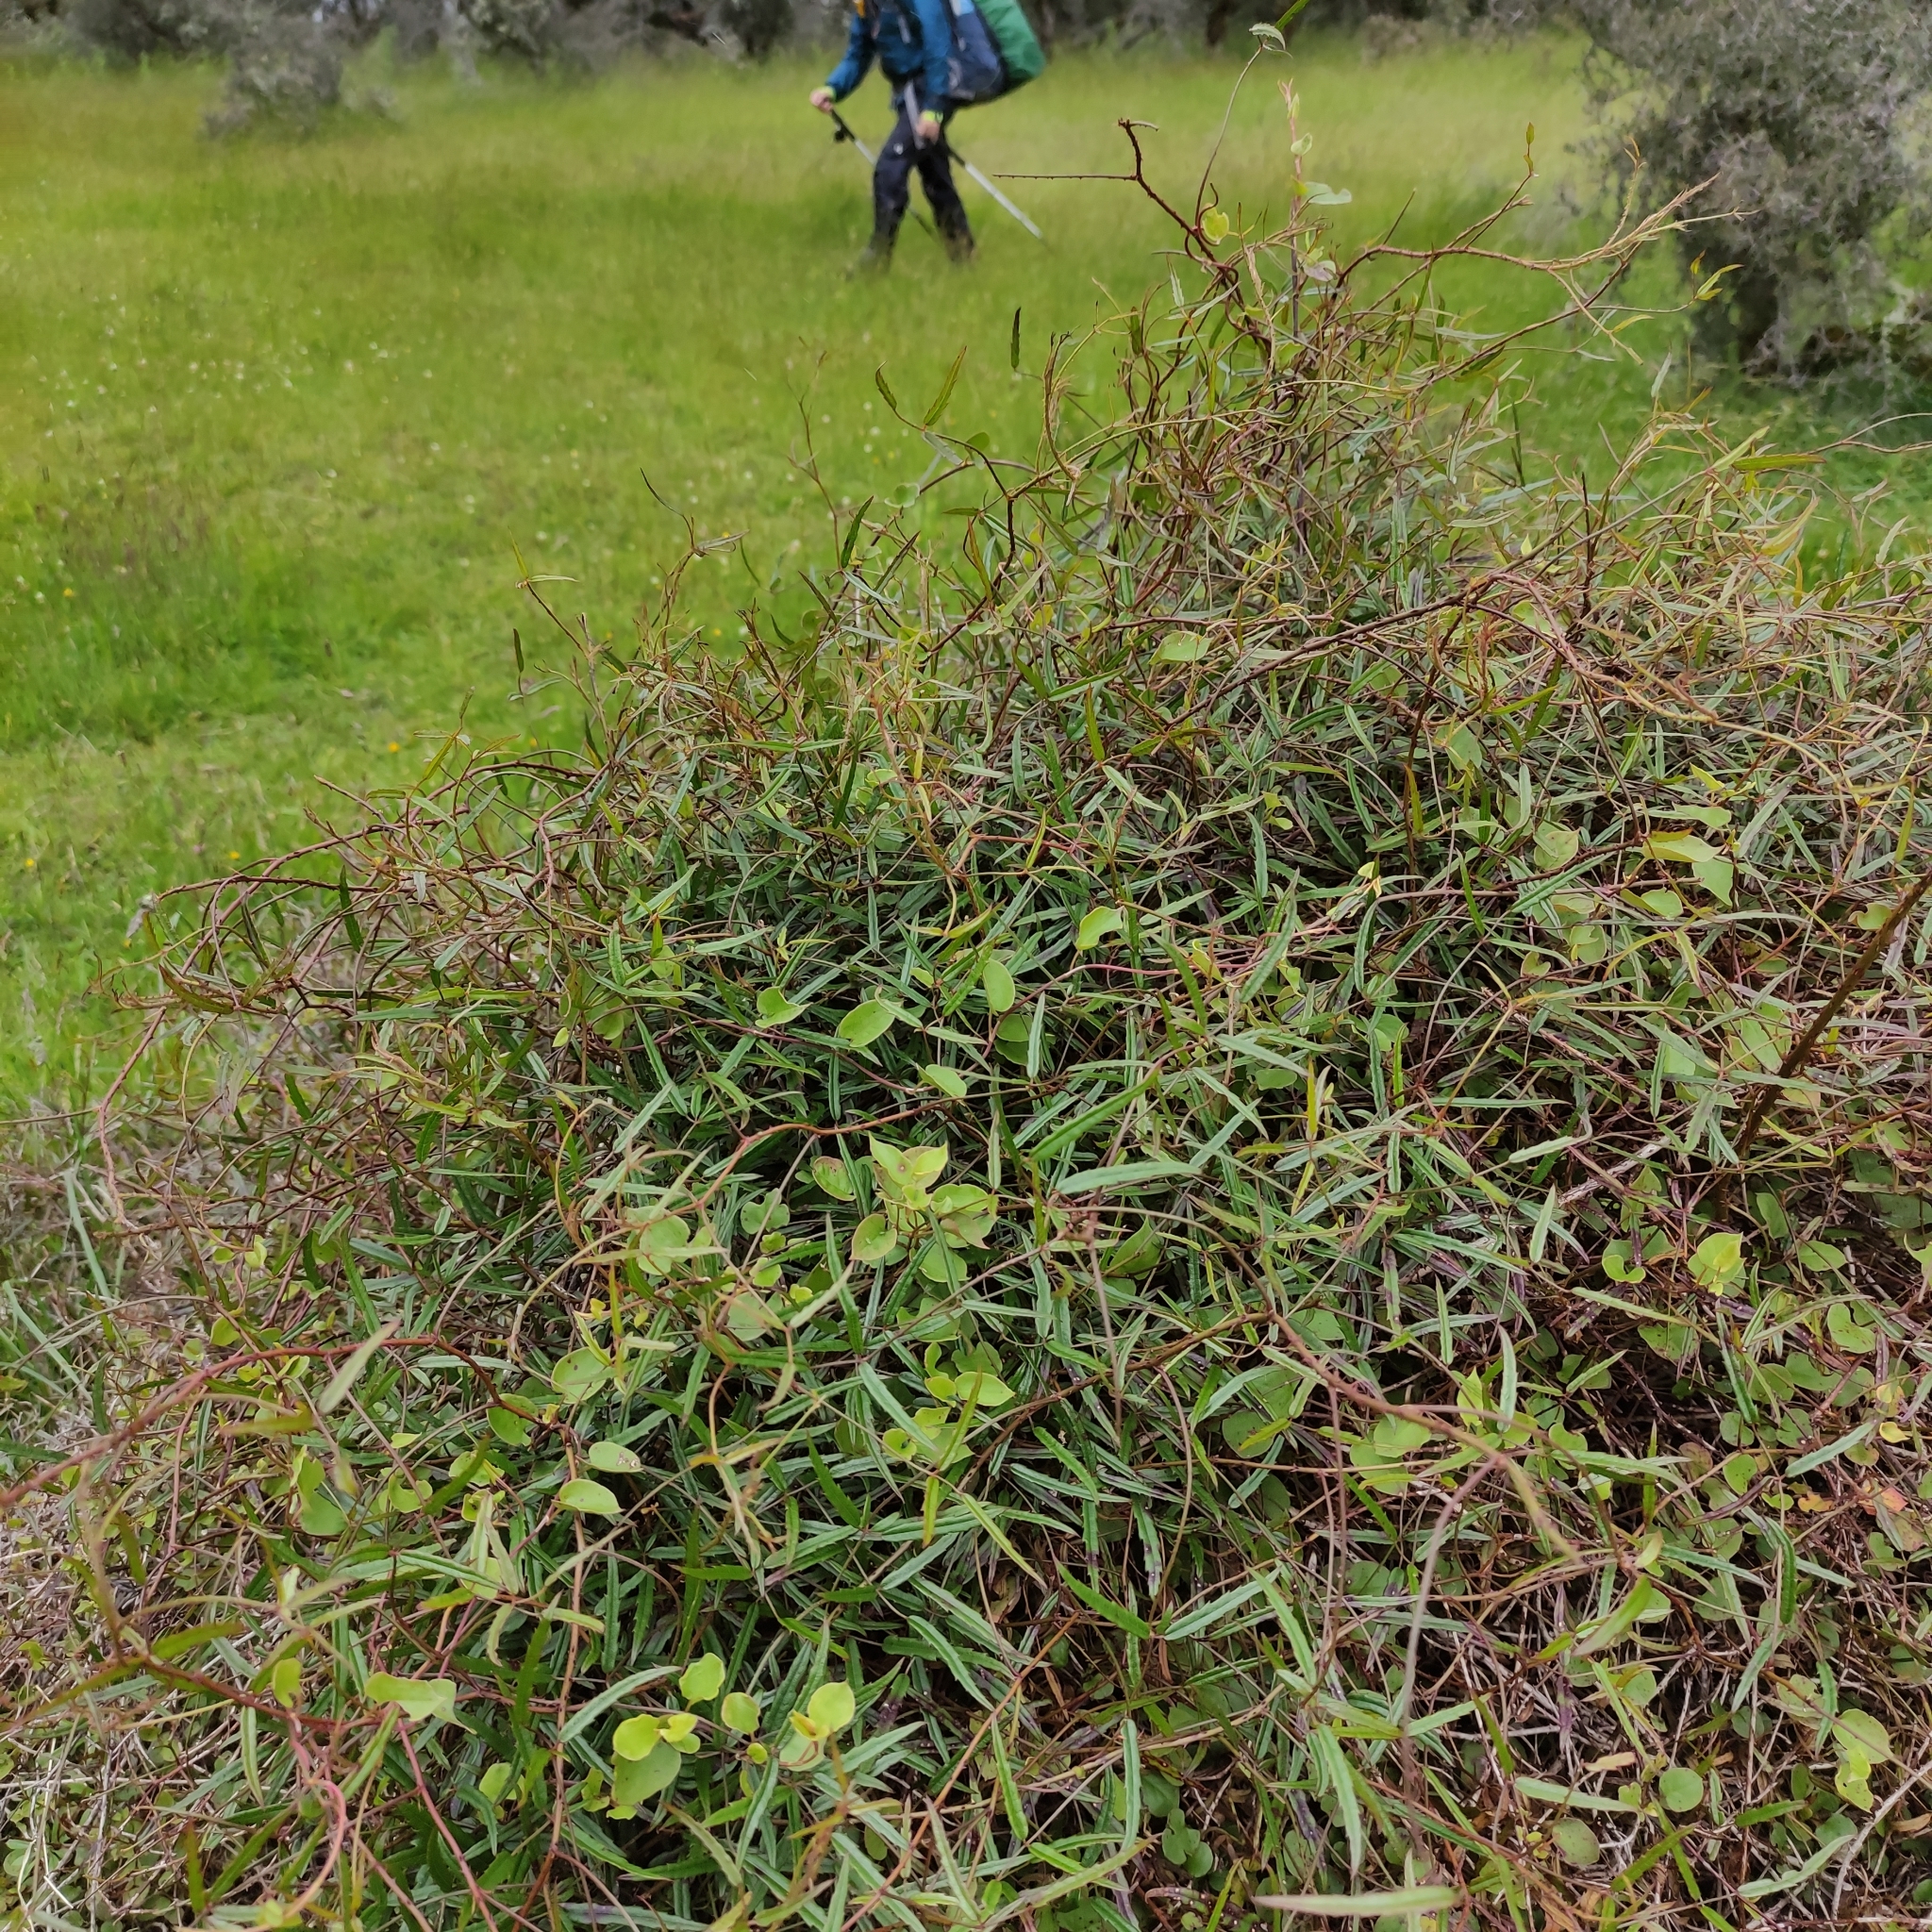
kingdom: Plantae
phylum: Tracheophyta
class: Magnoliopsida
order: Rosales
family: Rosaceae
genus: Rubus
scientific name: Rubus schmidelioides
